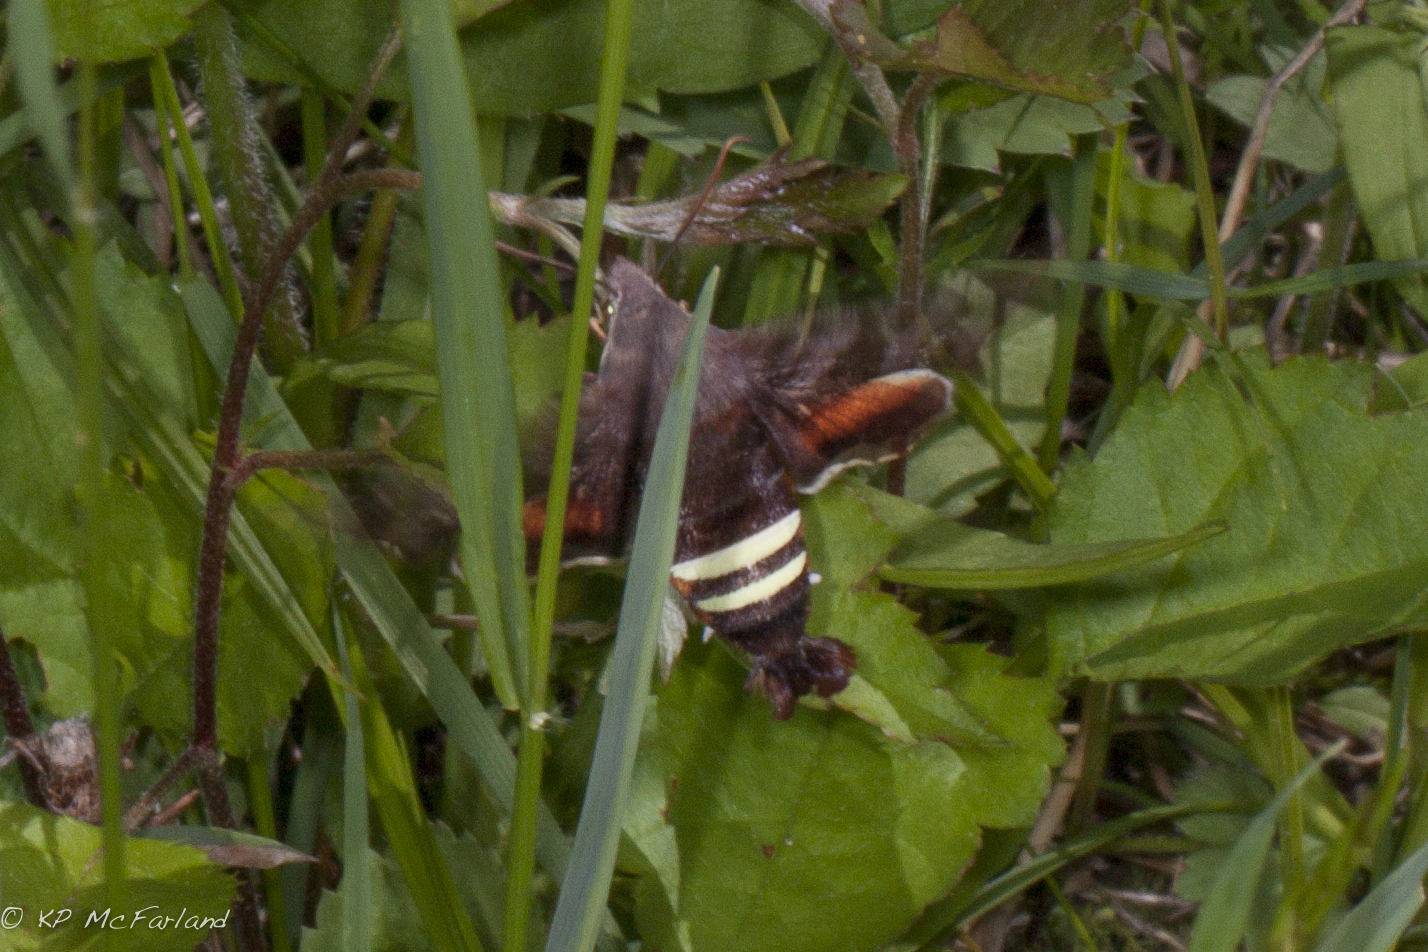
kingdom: Animalia
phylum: Arthropoda
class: Insecta
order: Lepidoptera
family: Sphingidae
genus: Amphion
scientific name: Amphion floridensis
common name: Nessus sphinx
